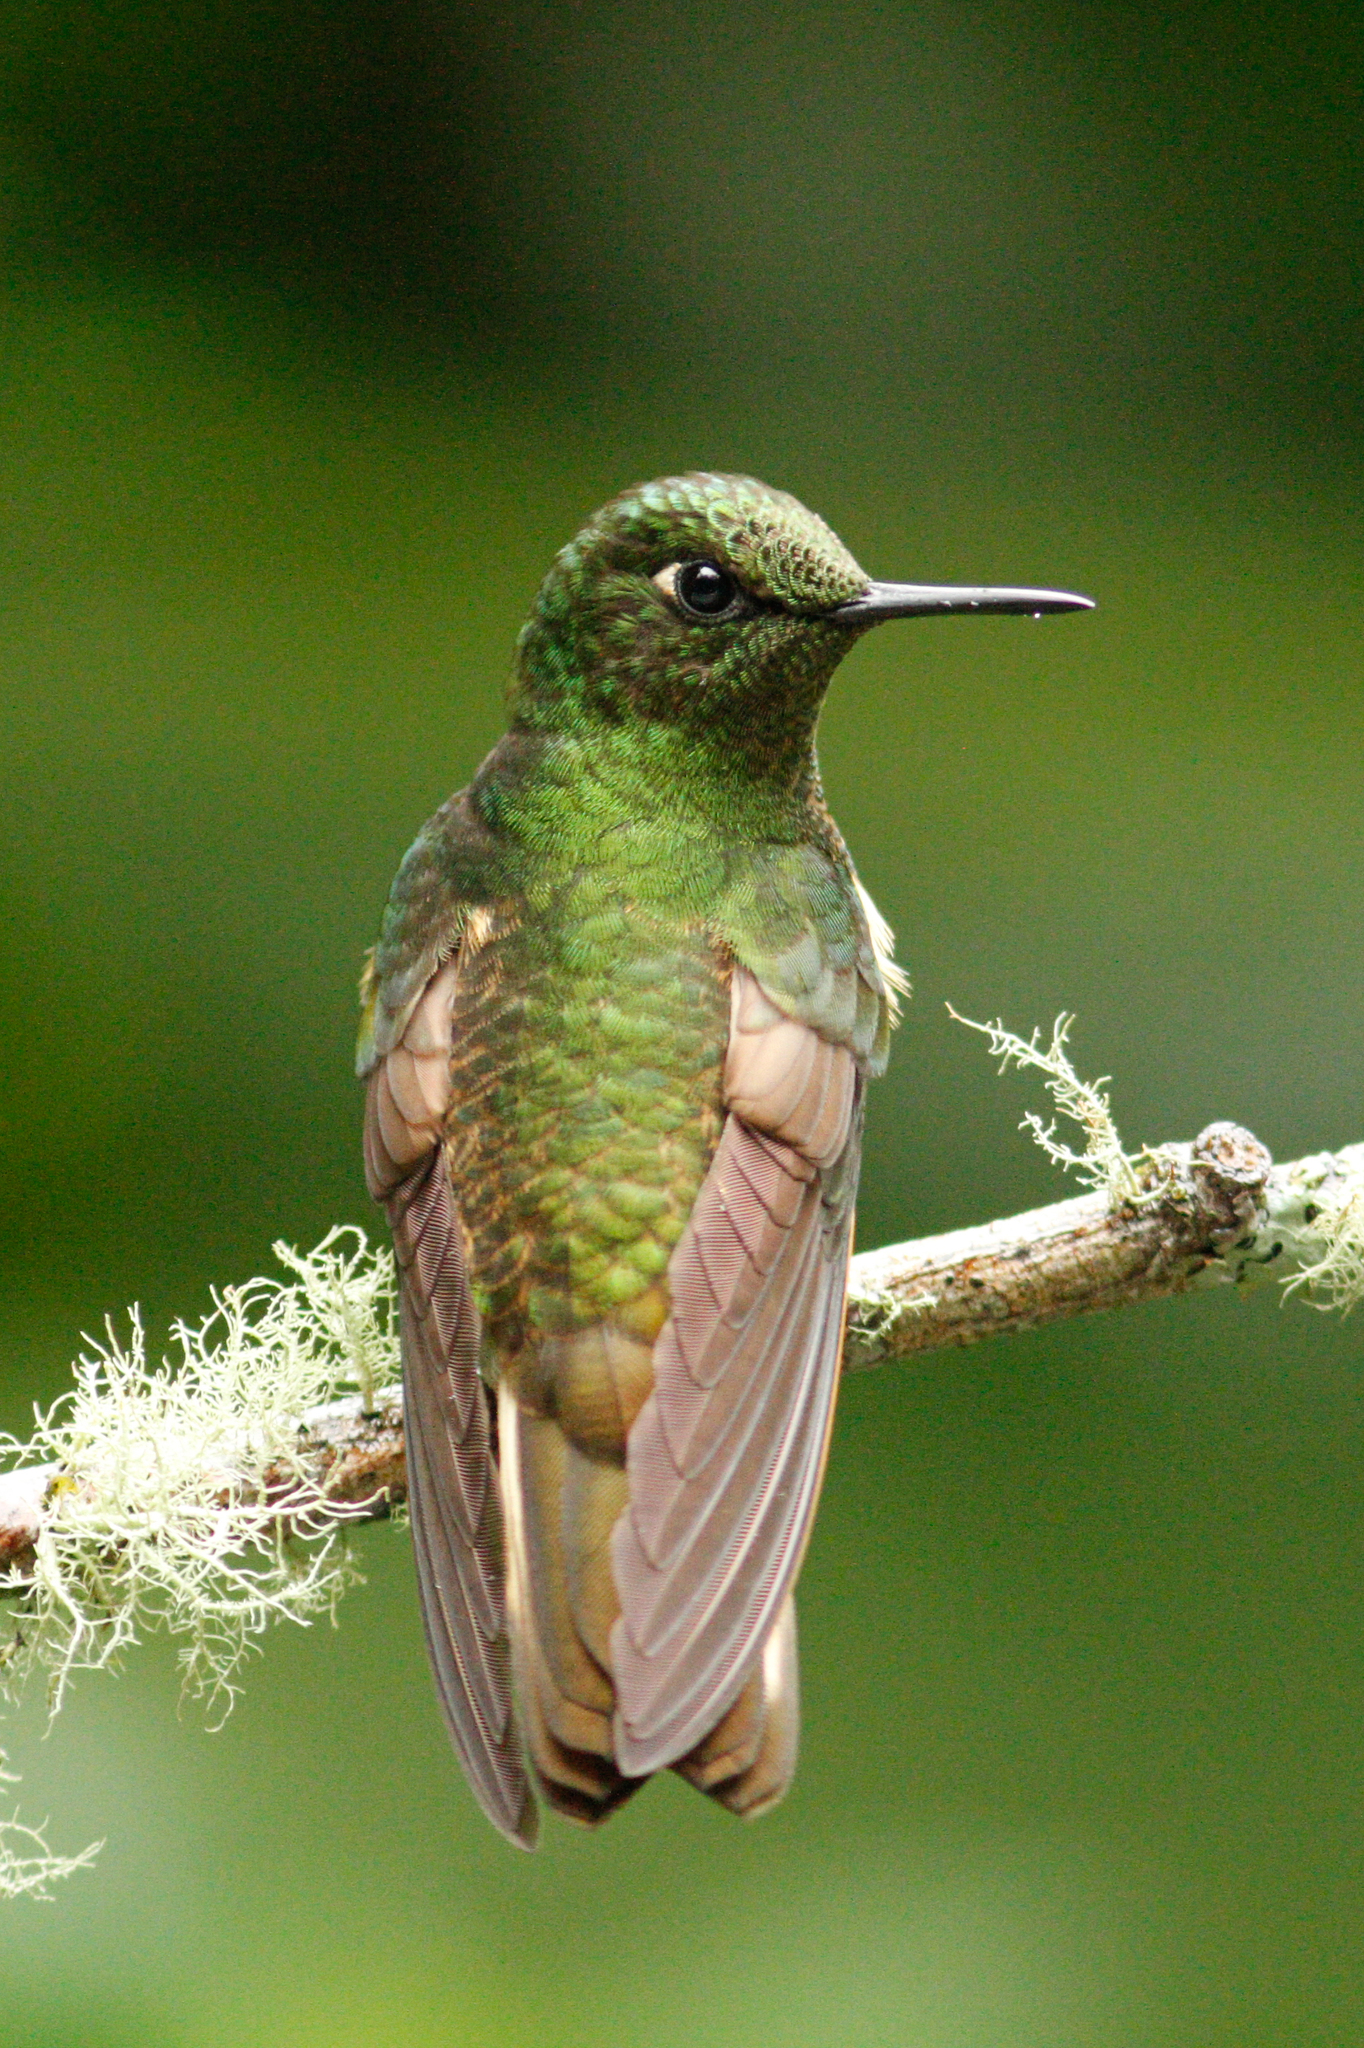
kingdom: Animalia
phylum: Chordata
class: Aves
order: Apodiformes
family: Trochilidae
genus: Boissonneaua
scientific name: Boissonneaua flavescens
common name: Buff-tailed coronet
